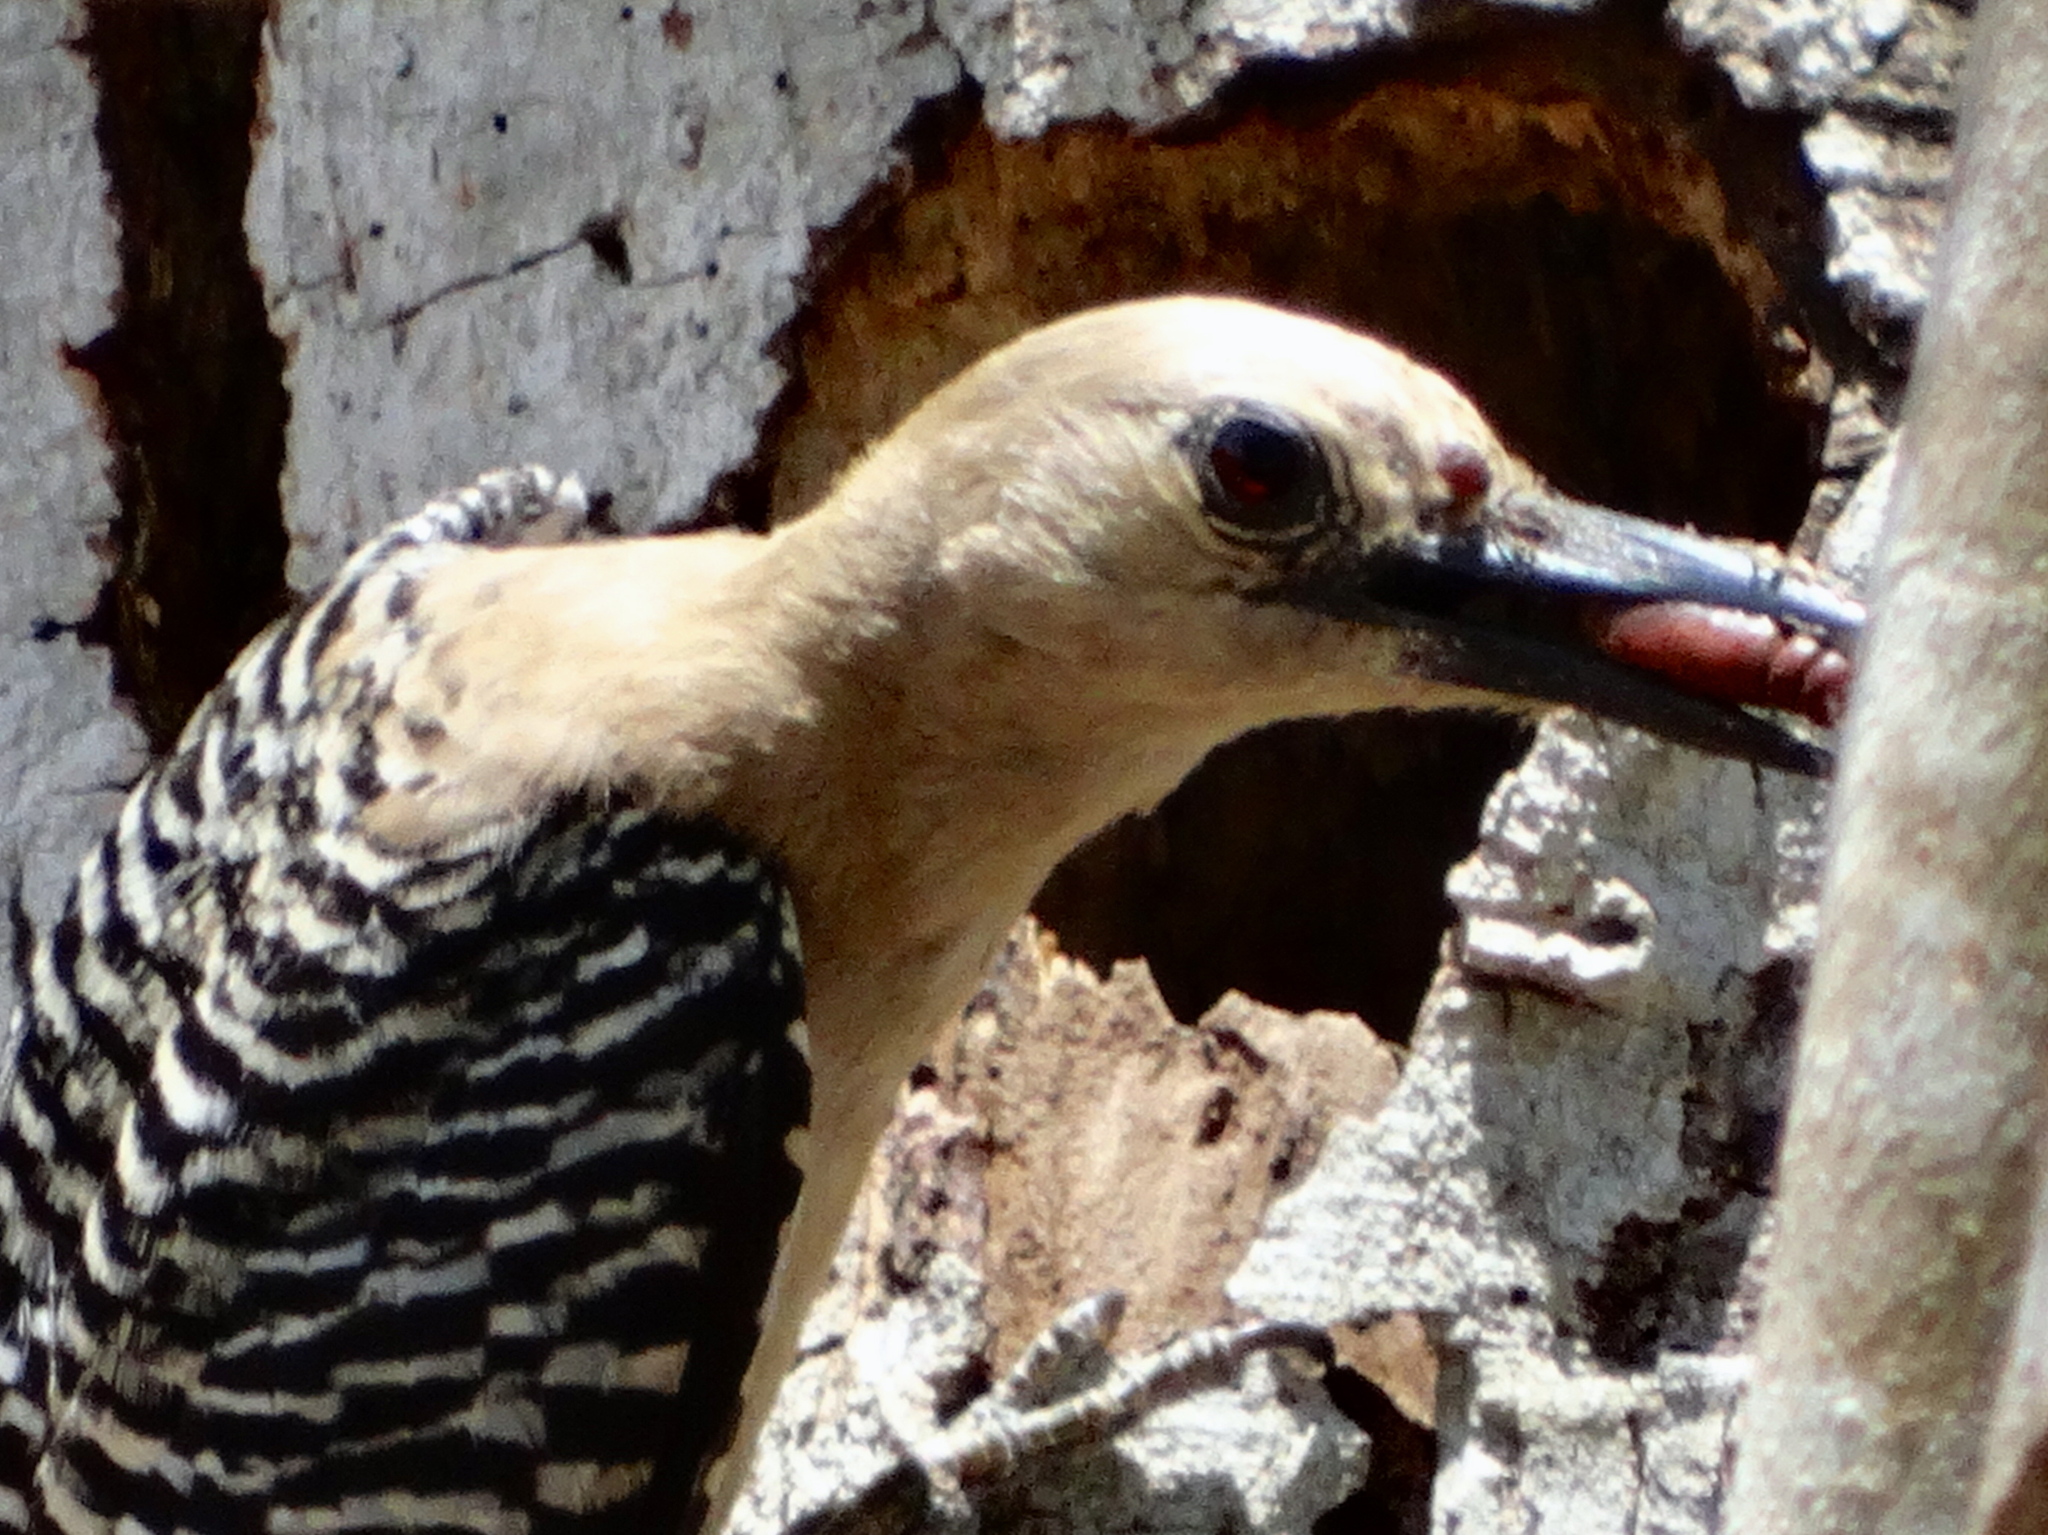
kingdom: Animalia
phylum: Chordata
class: Aves
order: Piciformes
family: Picidae
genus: Melanerpes
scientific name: Melanerpes uropygialis
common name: Gila woodpecker
